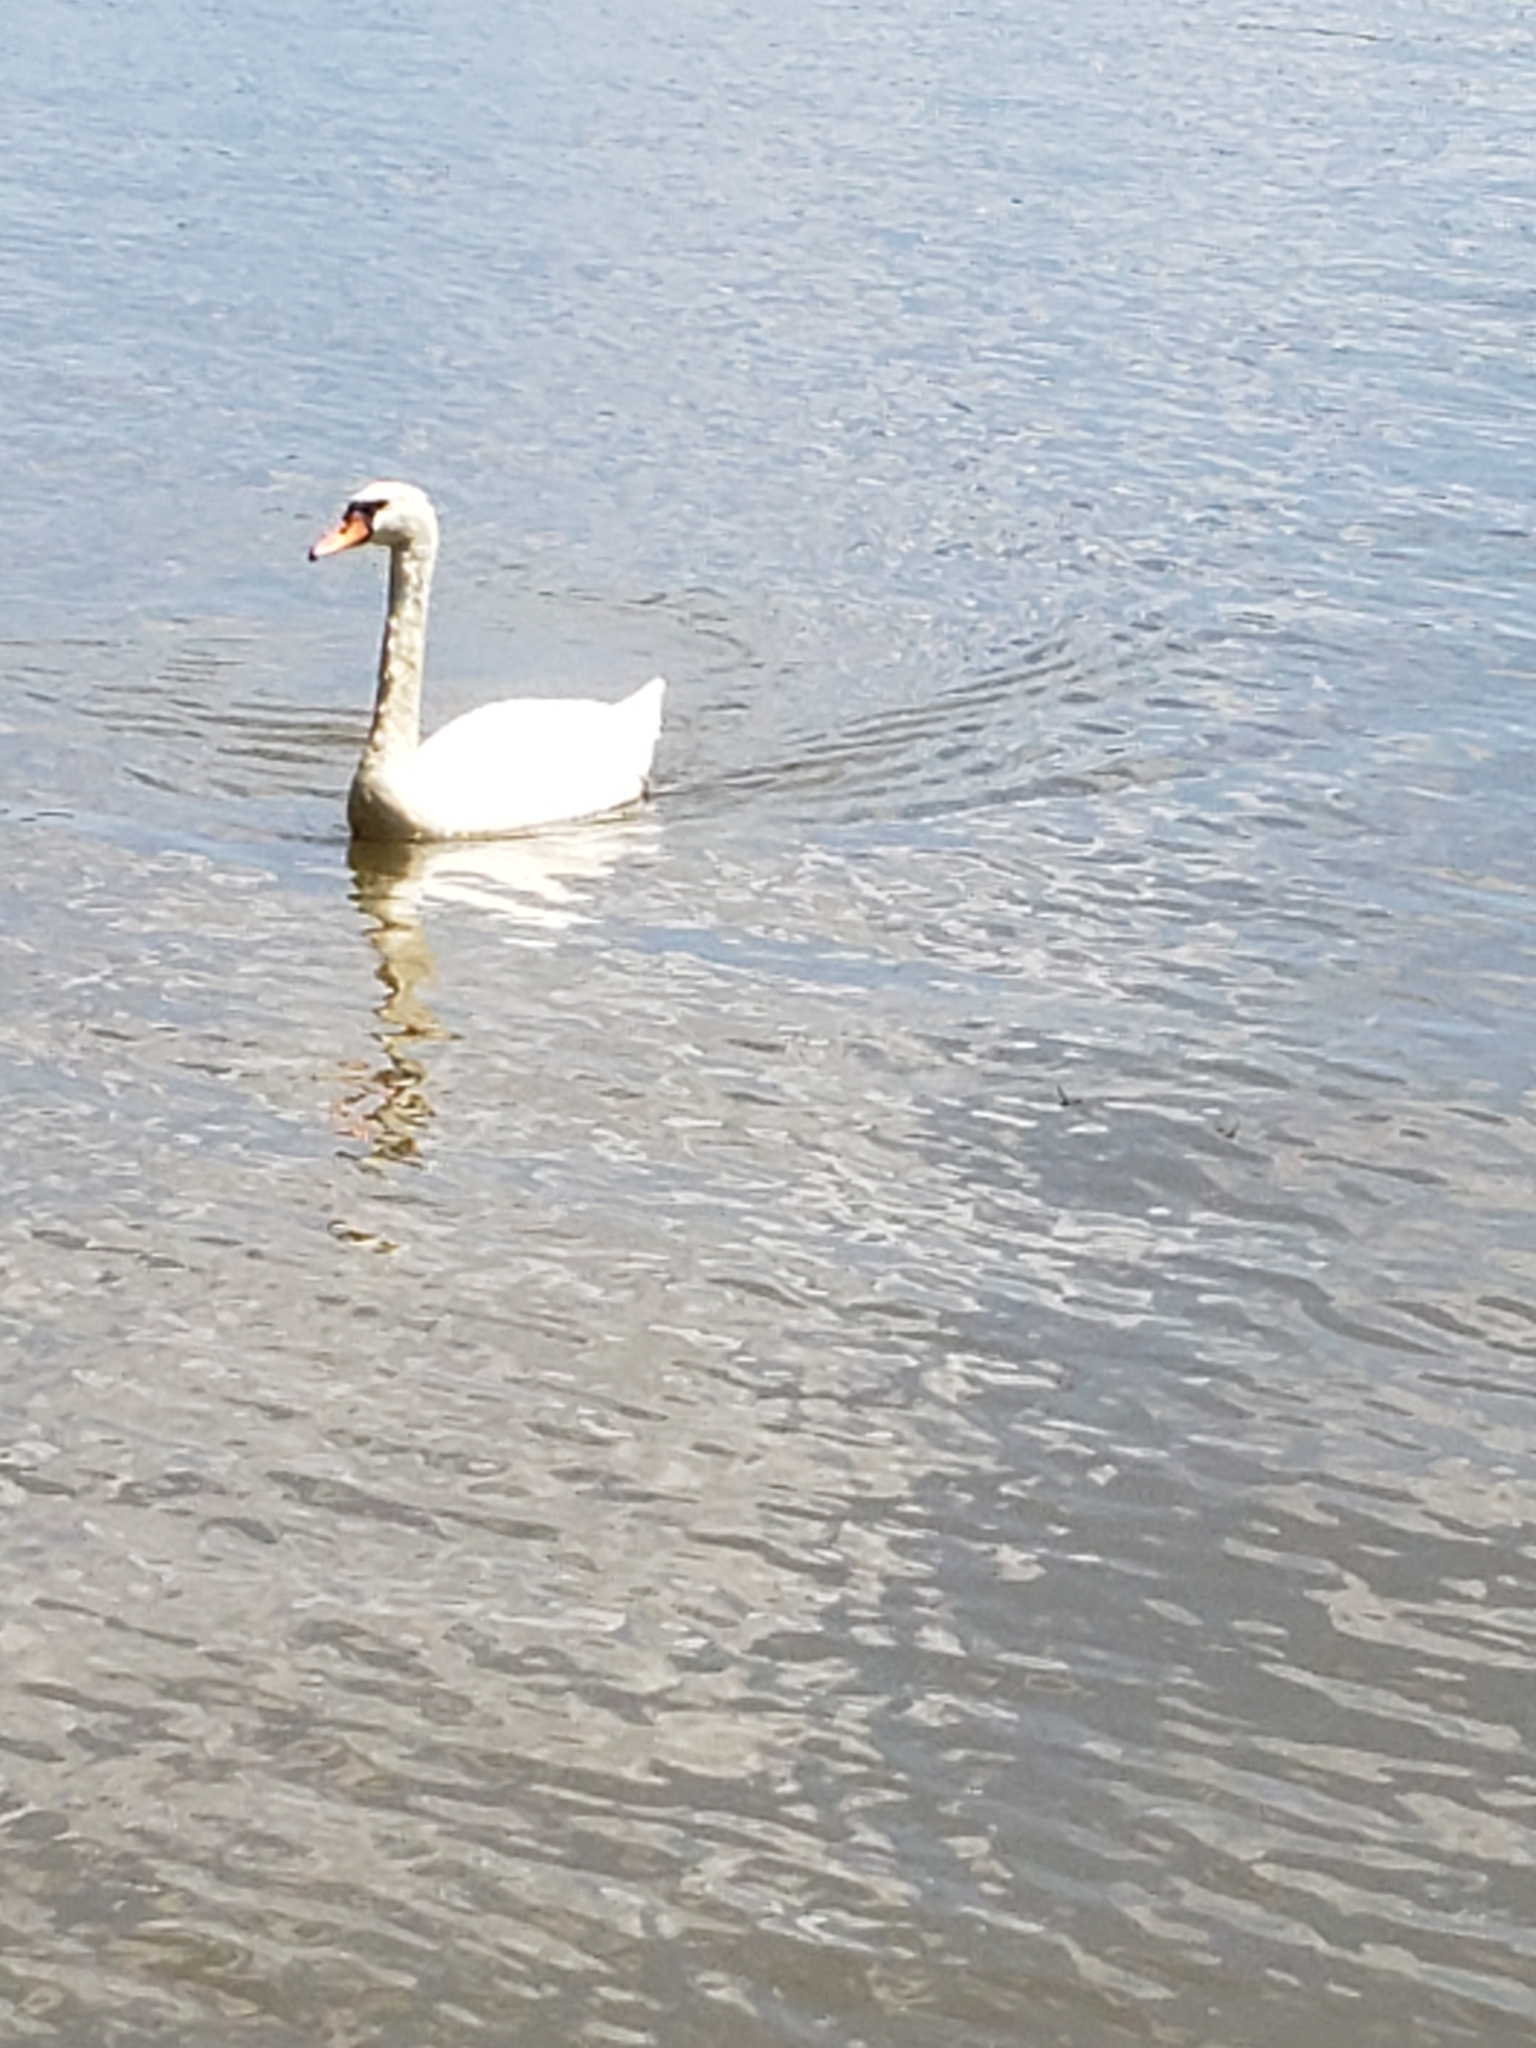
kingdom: Animalia
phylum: Chordata
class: Aves
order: Anseriformes
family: Anatidae
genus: Cygnus
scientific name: Cygnus olor
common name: Mute swan
